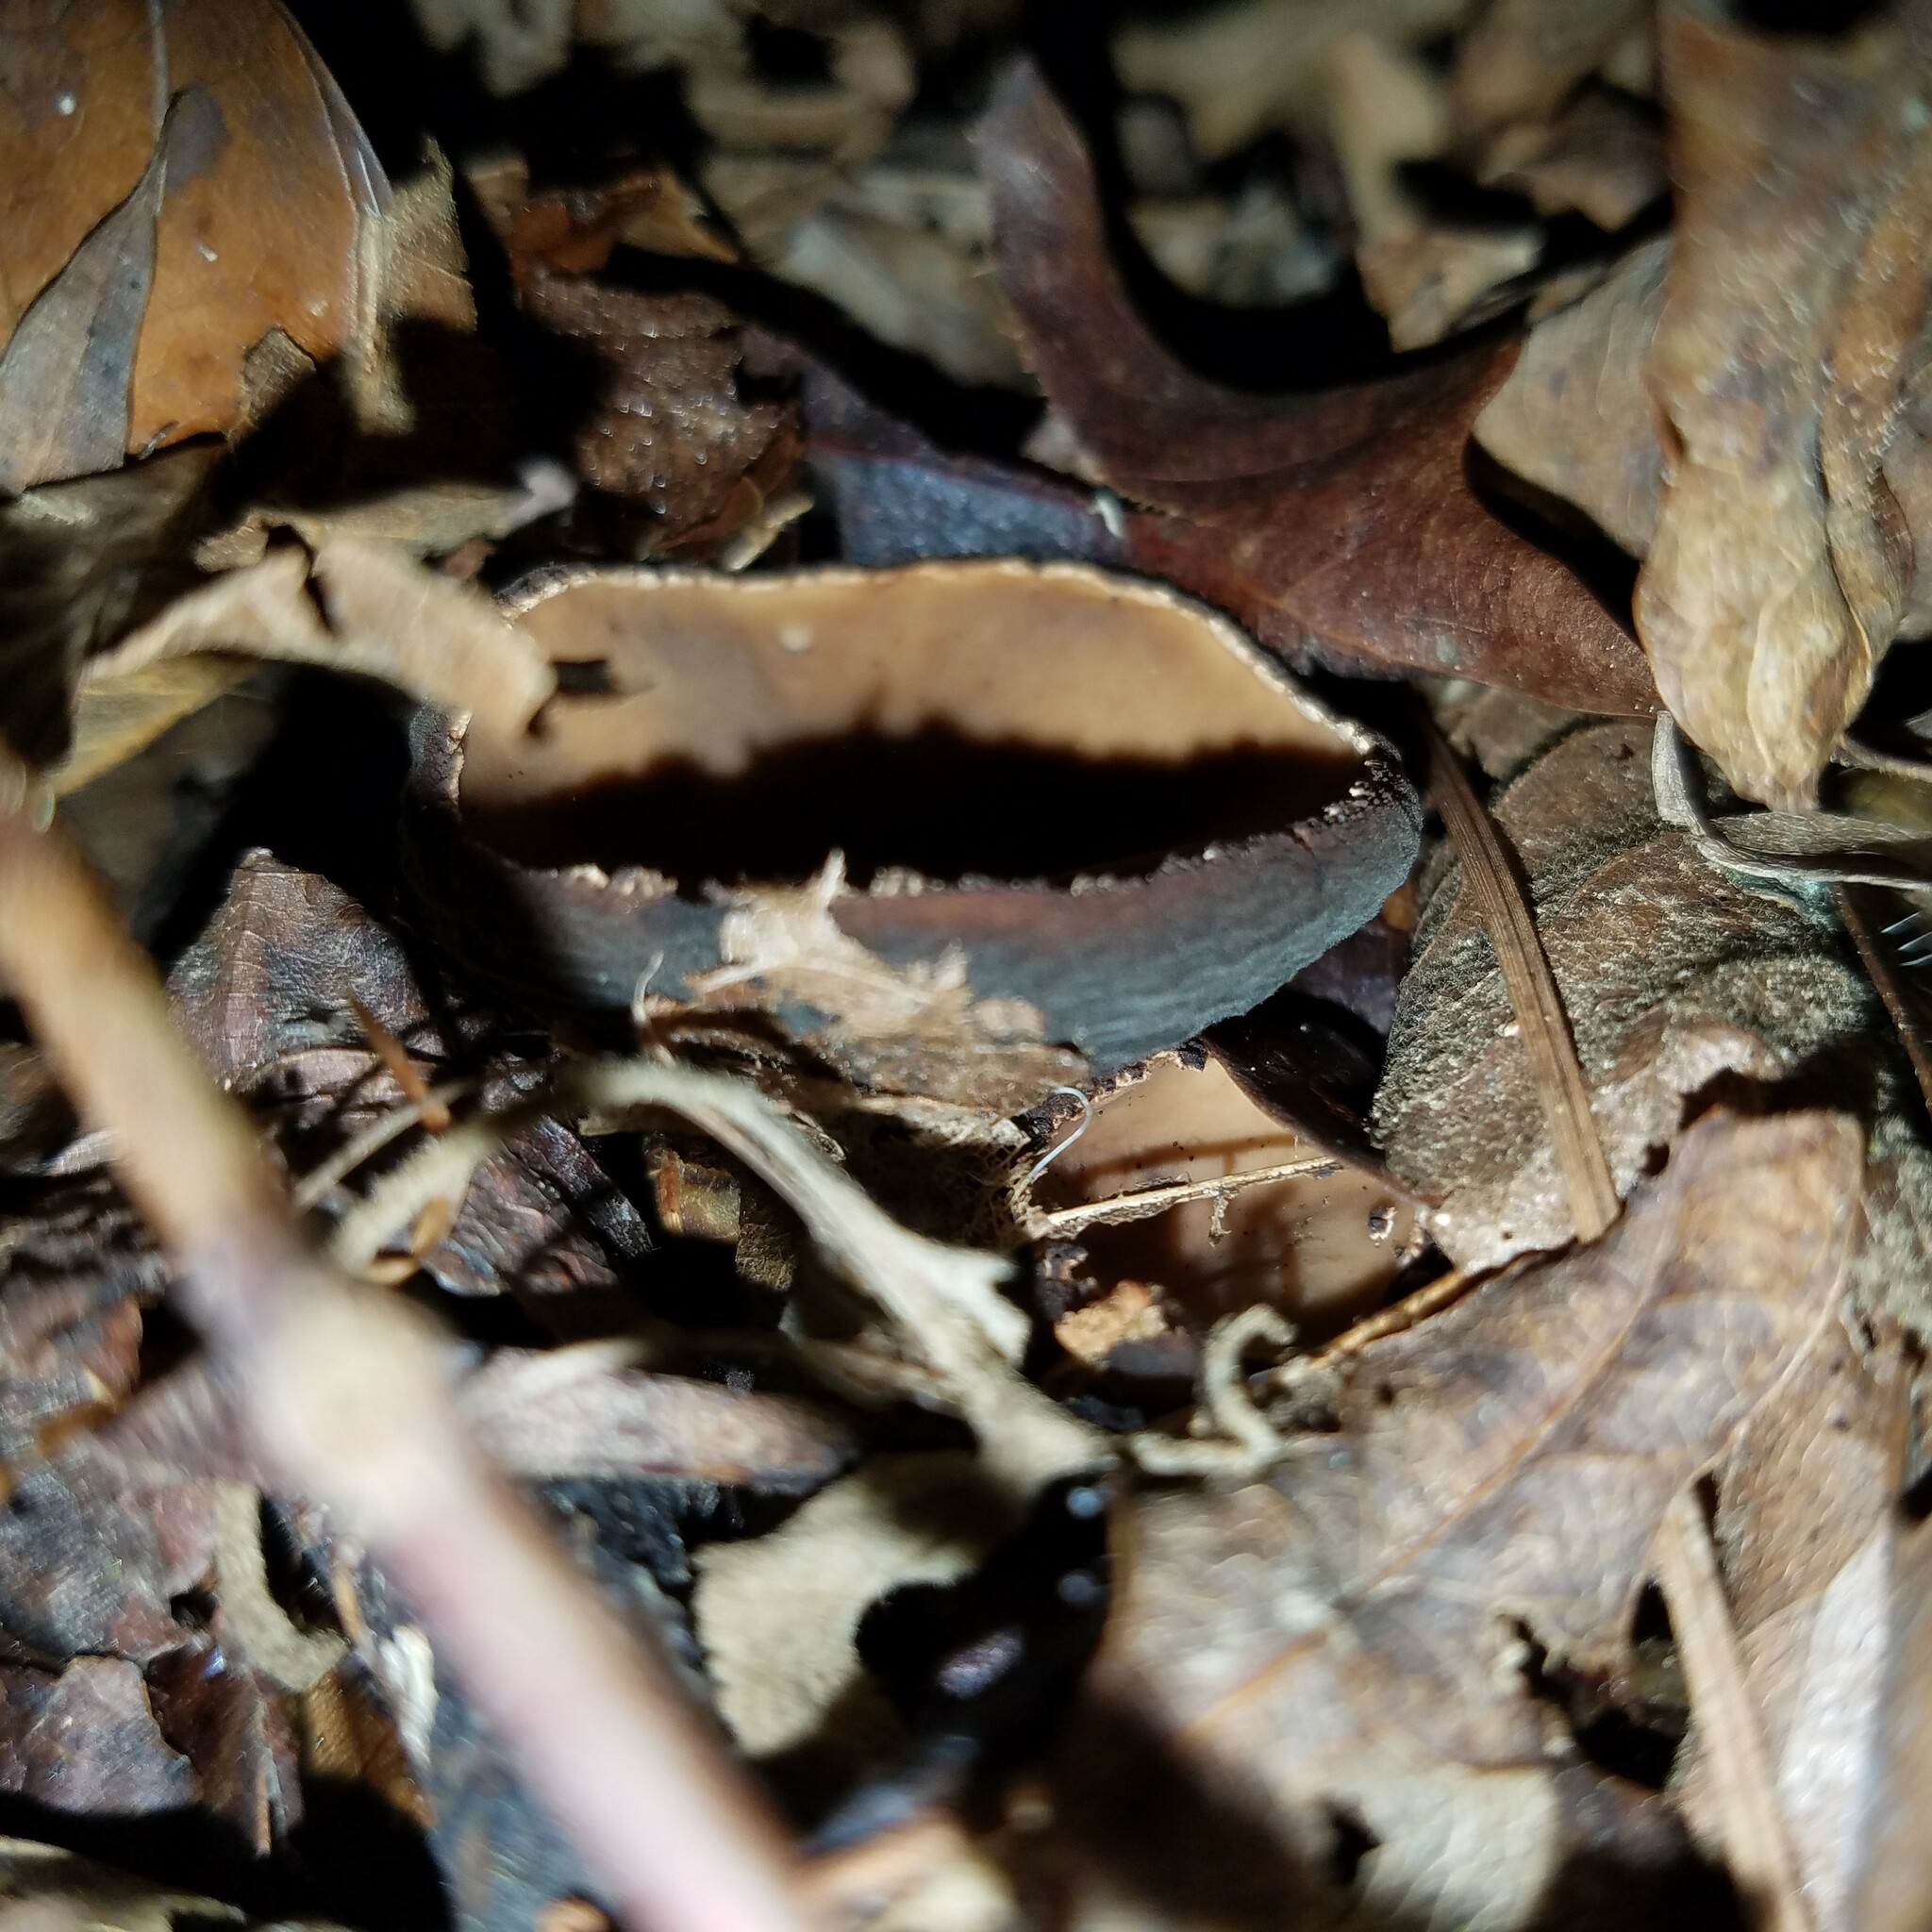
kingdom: Fungi
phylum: Ascomycota
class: Pezizomycetes
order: Pezizales
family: Sarcosomataceae
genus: Galiella
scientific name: Galiella rufa
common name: Hairy rubber cup
